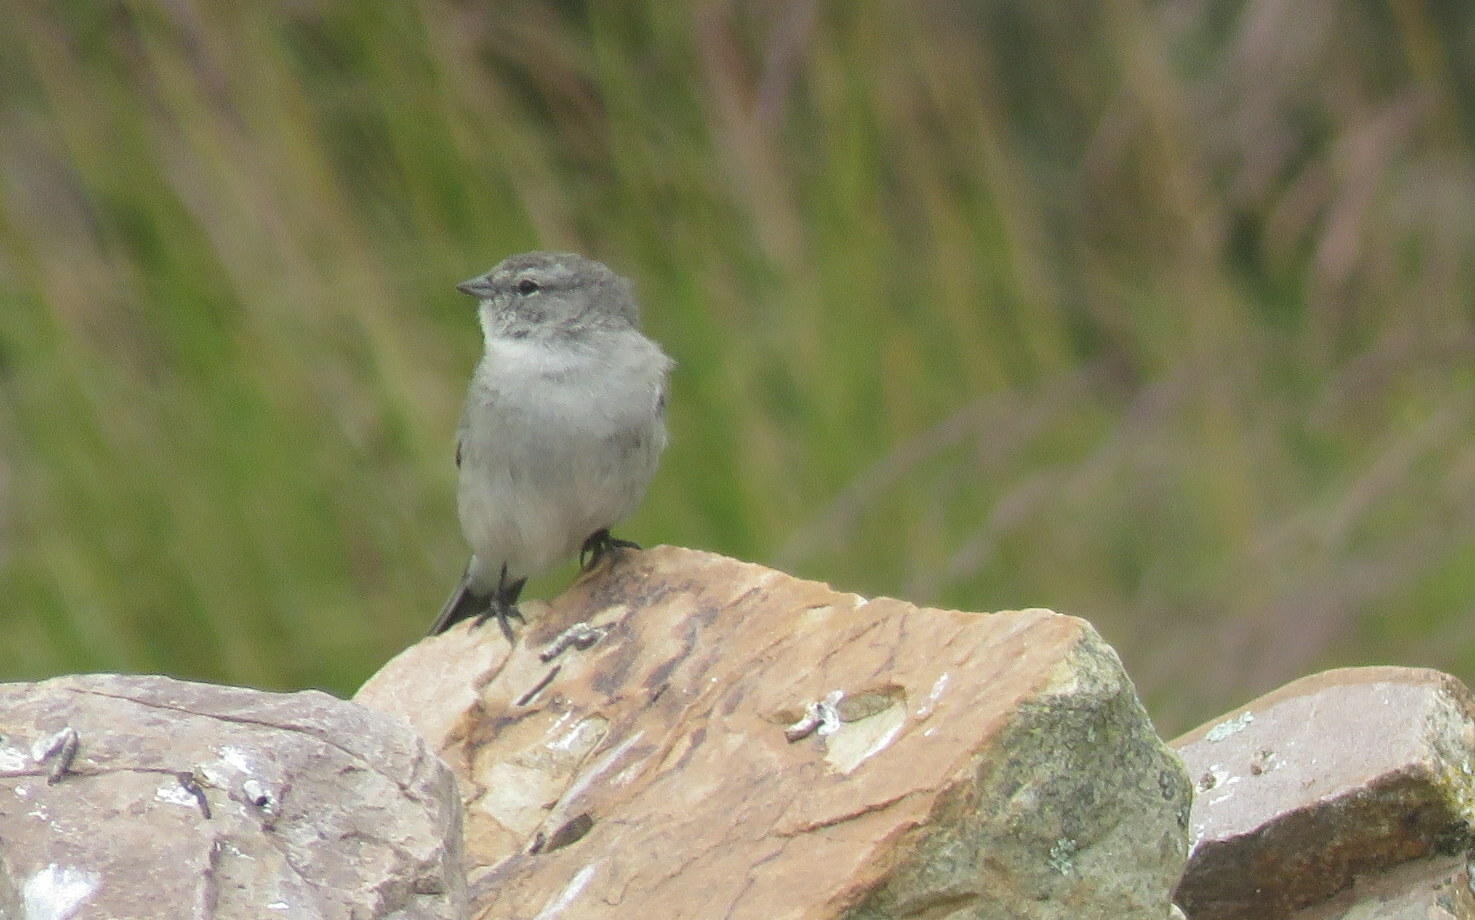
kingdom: Animalia
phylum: Chordata
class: Aves
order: Passeriformes
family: Thraupidae
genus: Geospizopsis
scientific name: Geospizopsis plebejus
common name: Ash-breasted sierra-finch
